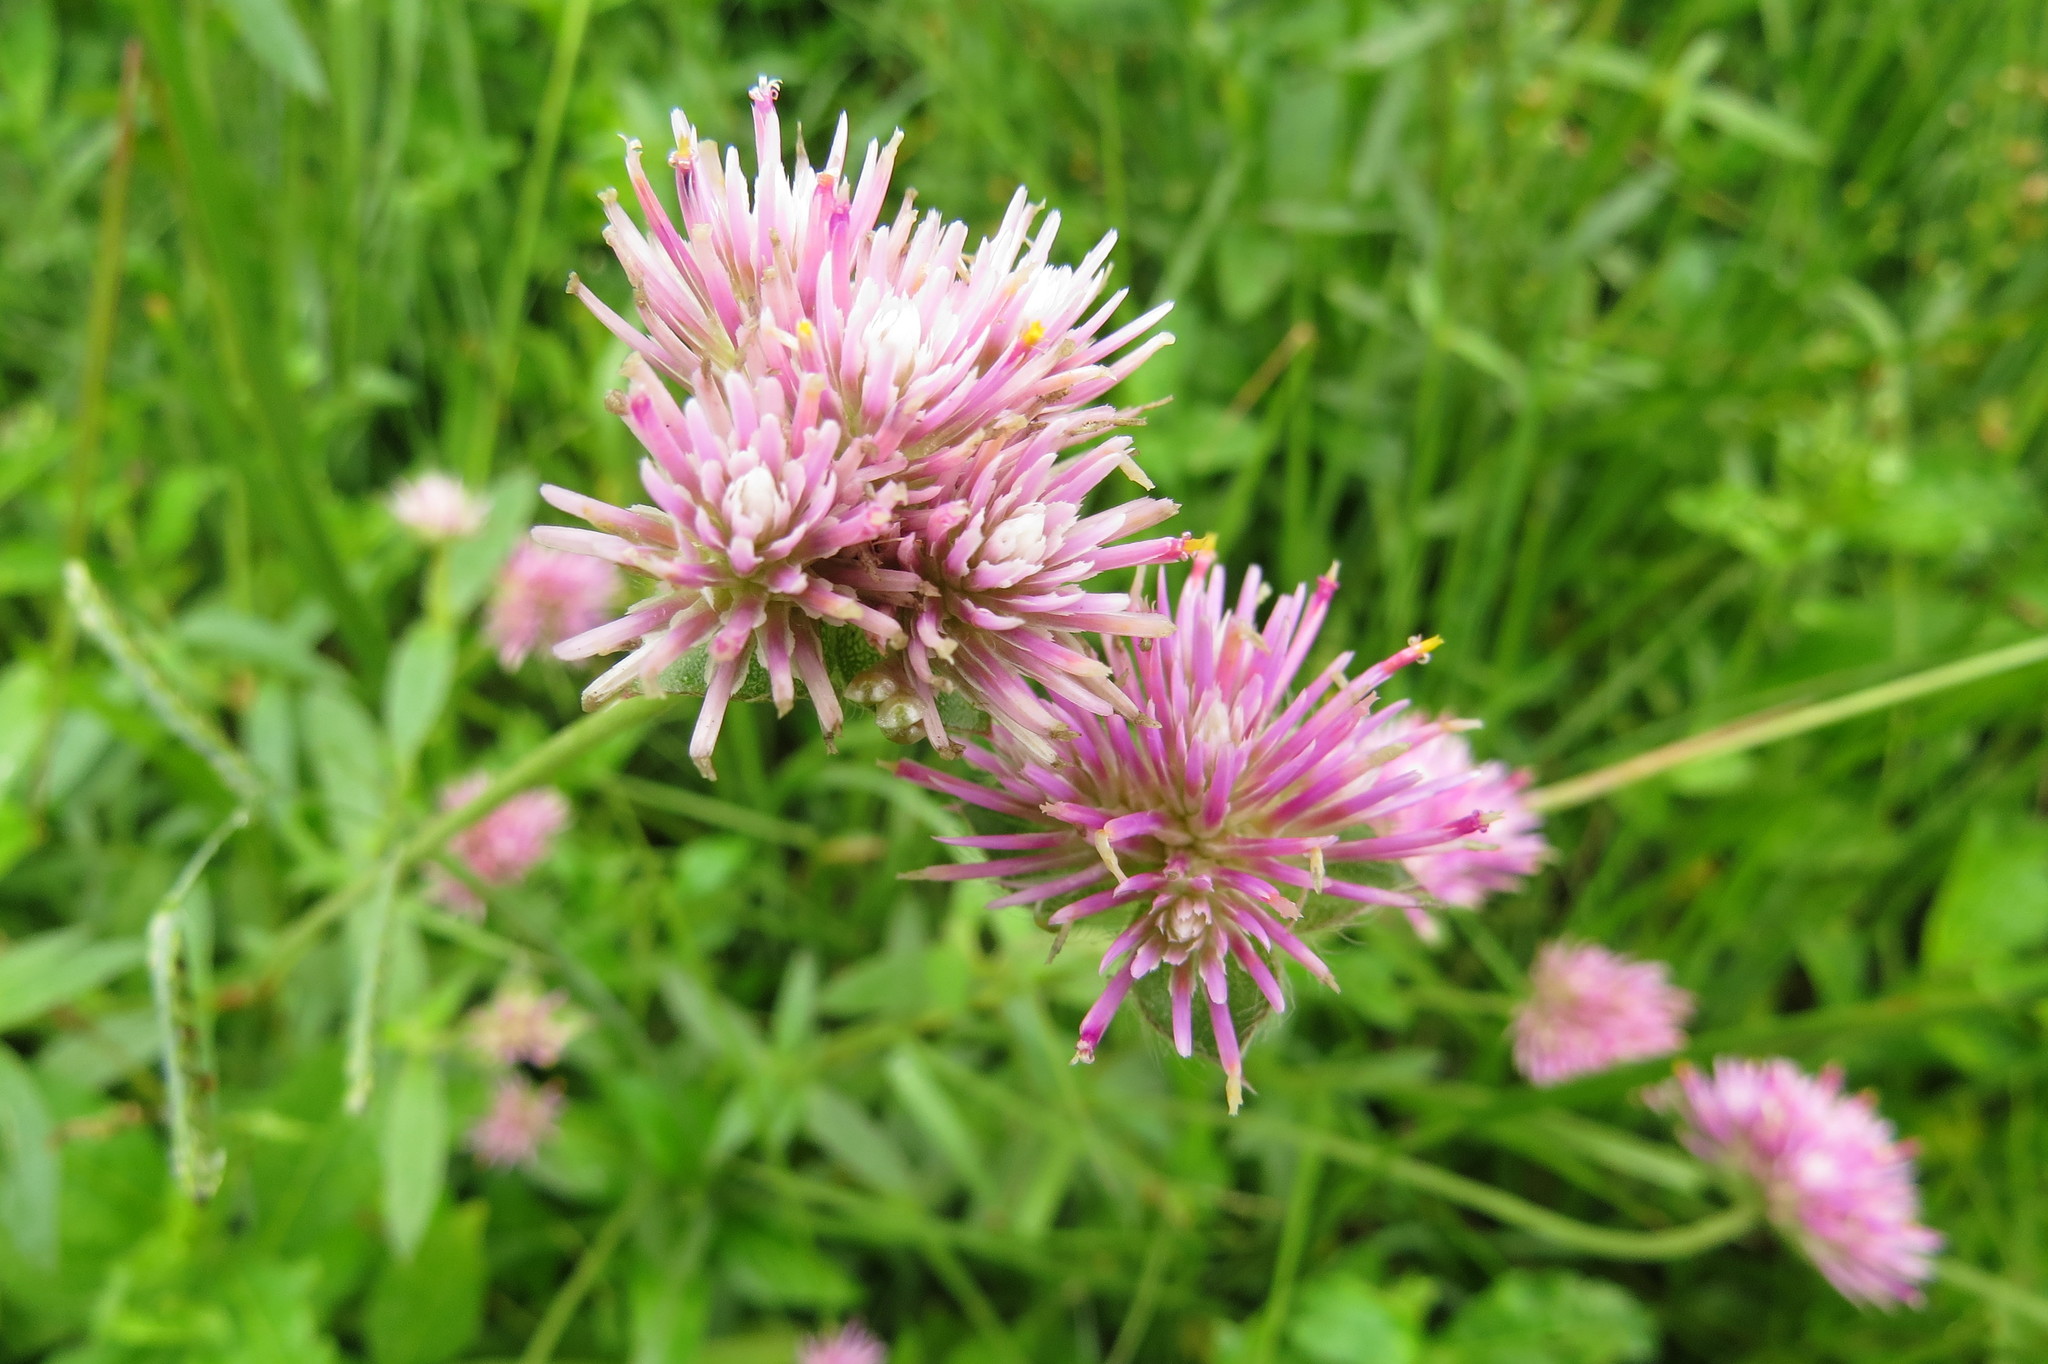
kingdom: Plantae
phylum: Tracheophyta
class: Magnoliopsida
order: Caryophyllales
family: Amaranthaceae
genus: Gomphrena
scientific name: Gomphrena pulchella
